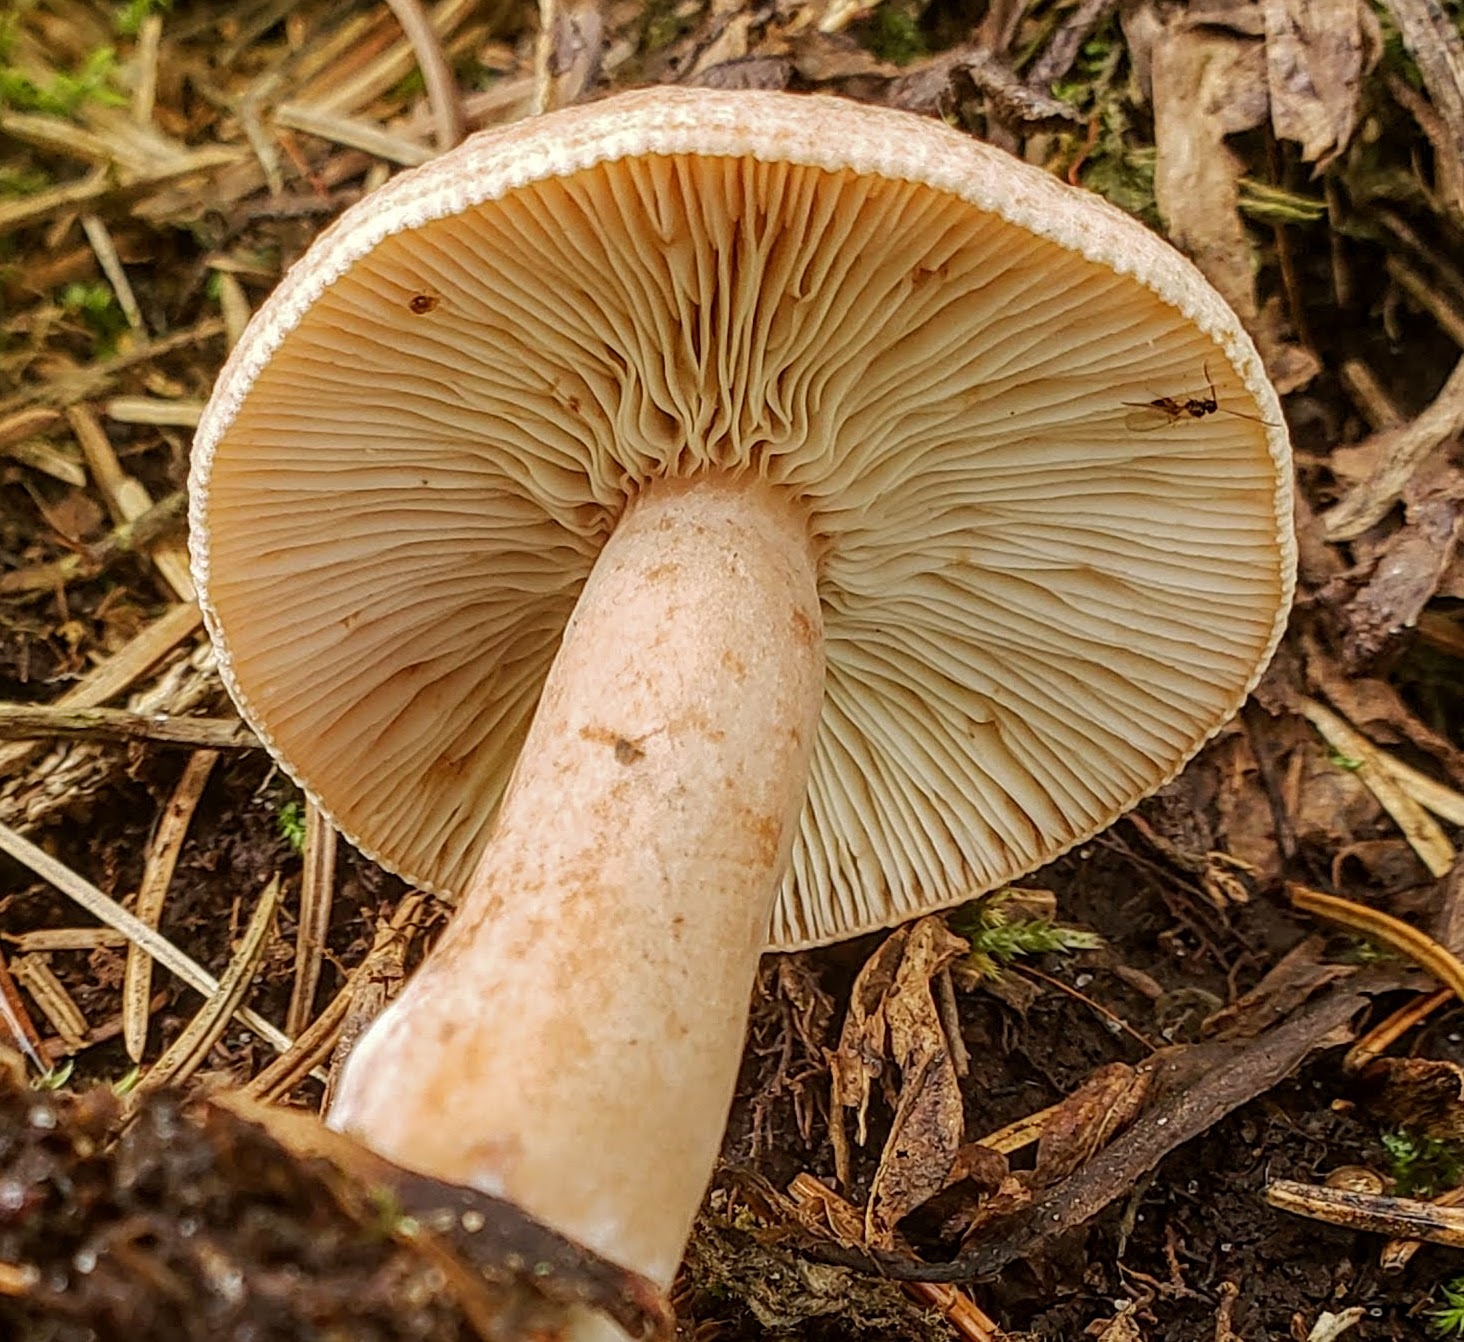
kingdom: Fungi
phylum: Basidiomycota
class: Agaricomycetes
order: Russulales
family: Russulaceae
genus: Lactarius
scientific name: Lactarius vinaceorufescens
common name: Yellow-latex milkcap
